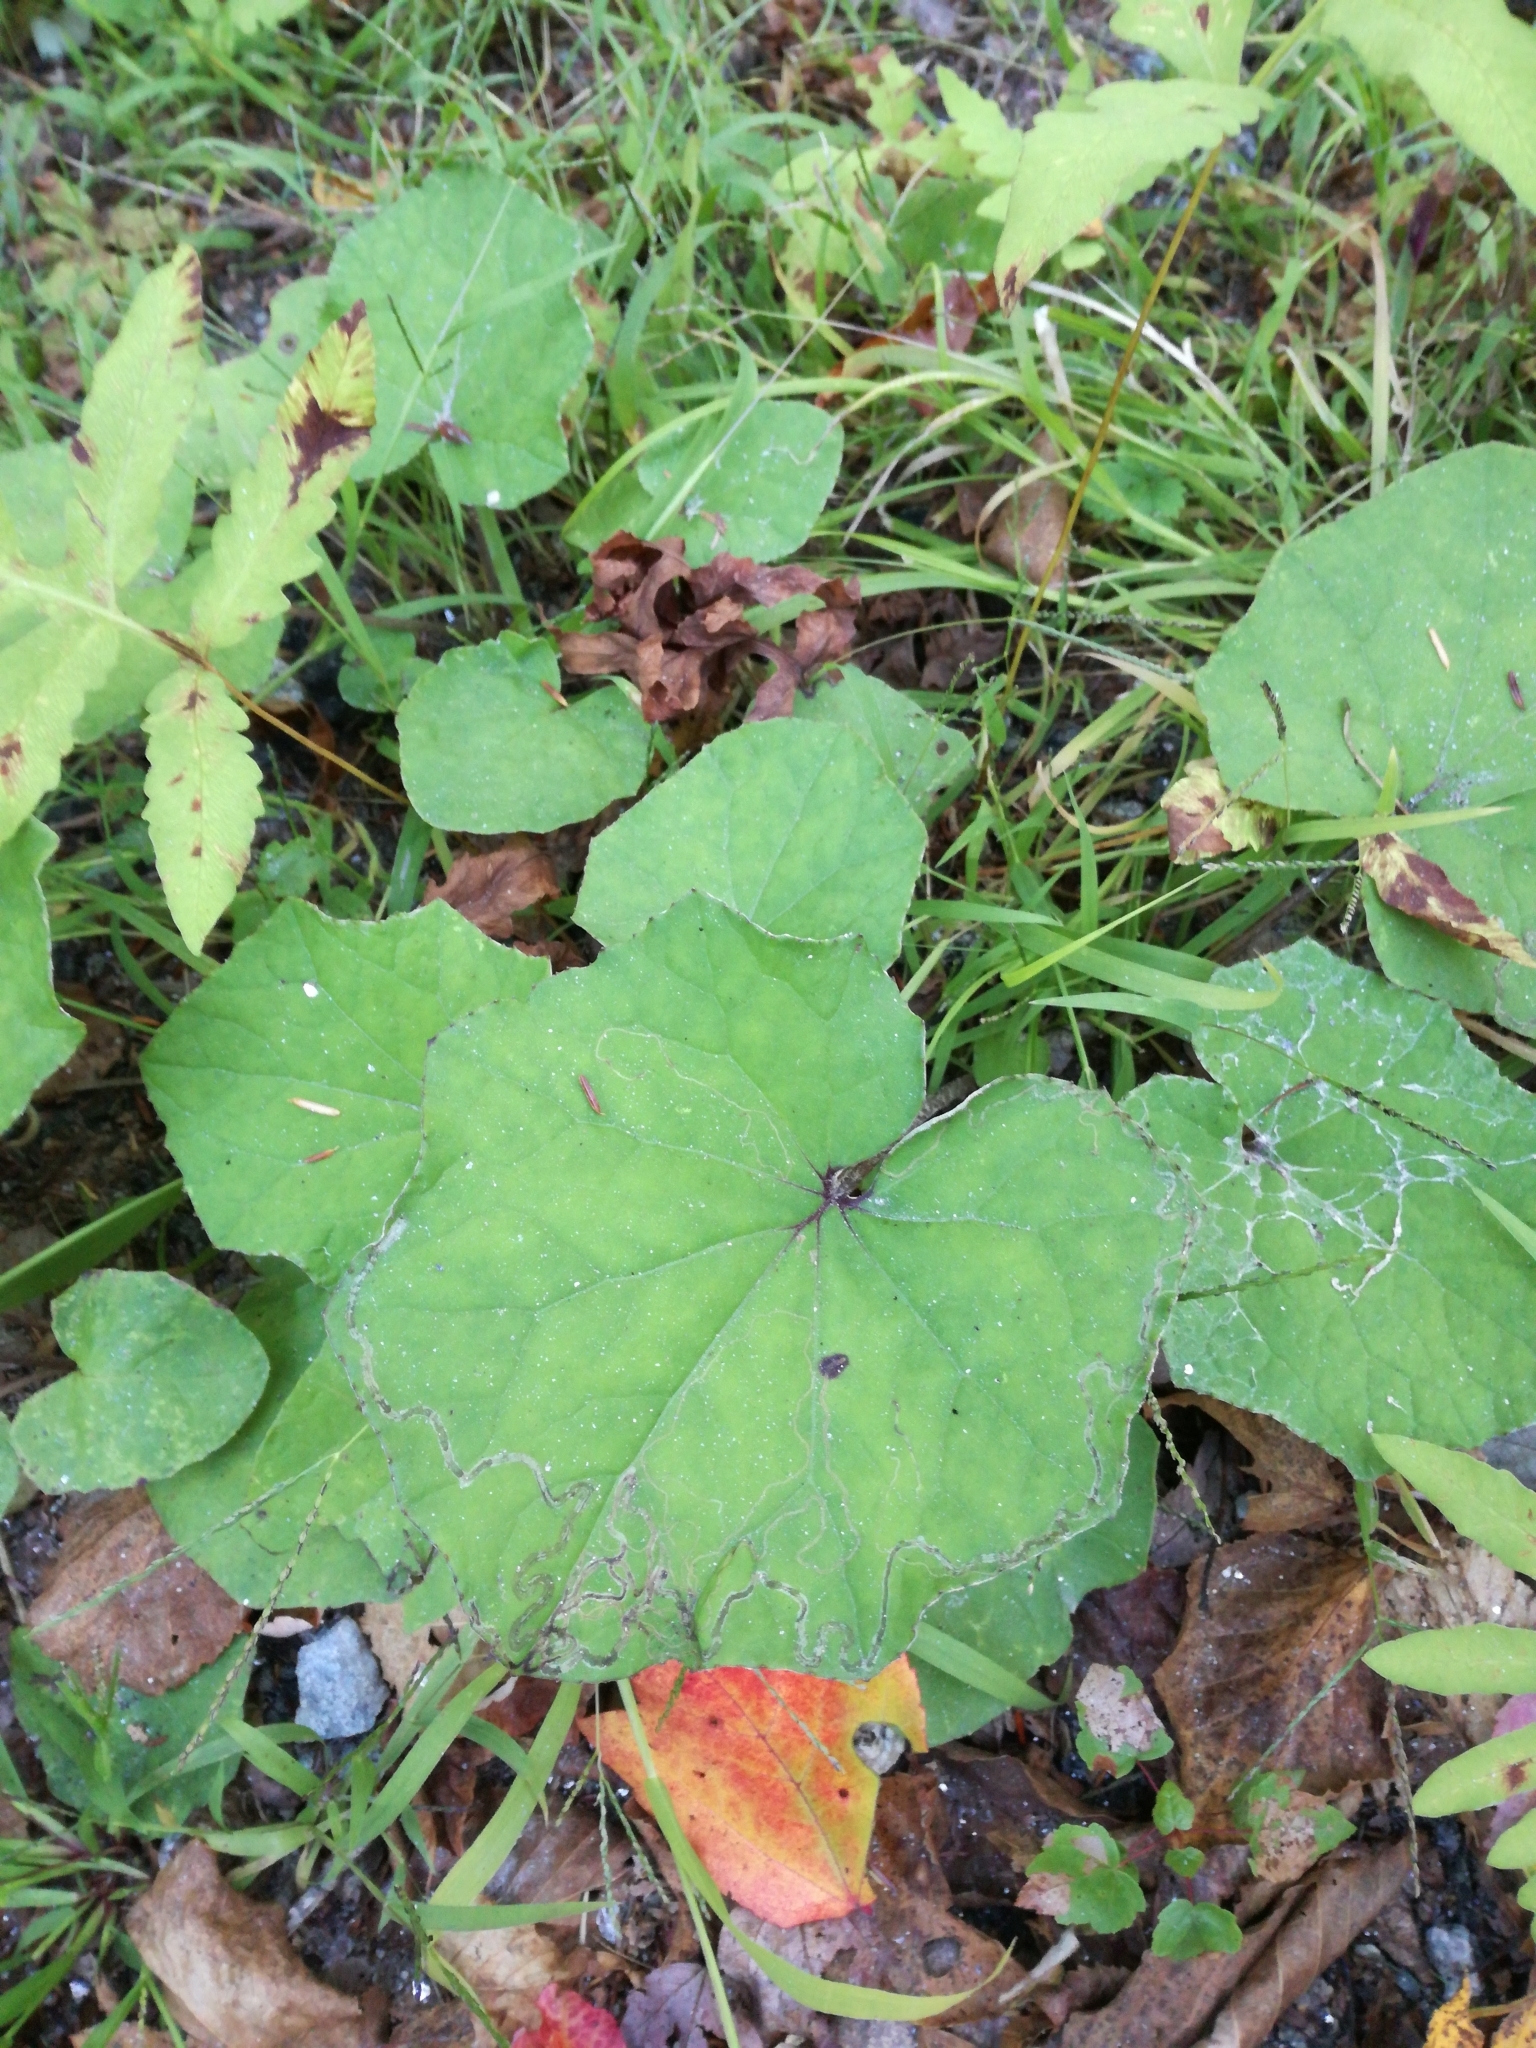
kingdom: Plantae
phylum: Tracheophyta
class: Magnoliopsida
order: Asterales
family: Asteraceae
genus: Tussilago
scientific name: Tussilago farfara
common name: Coltsfoot
